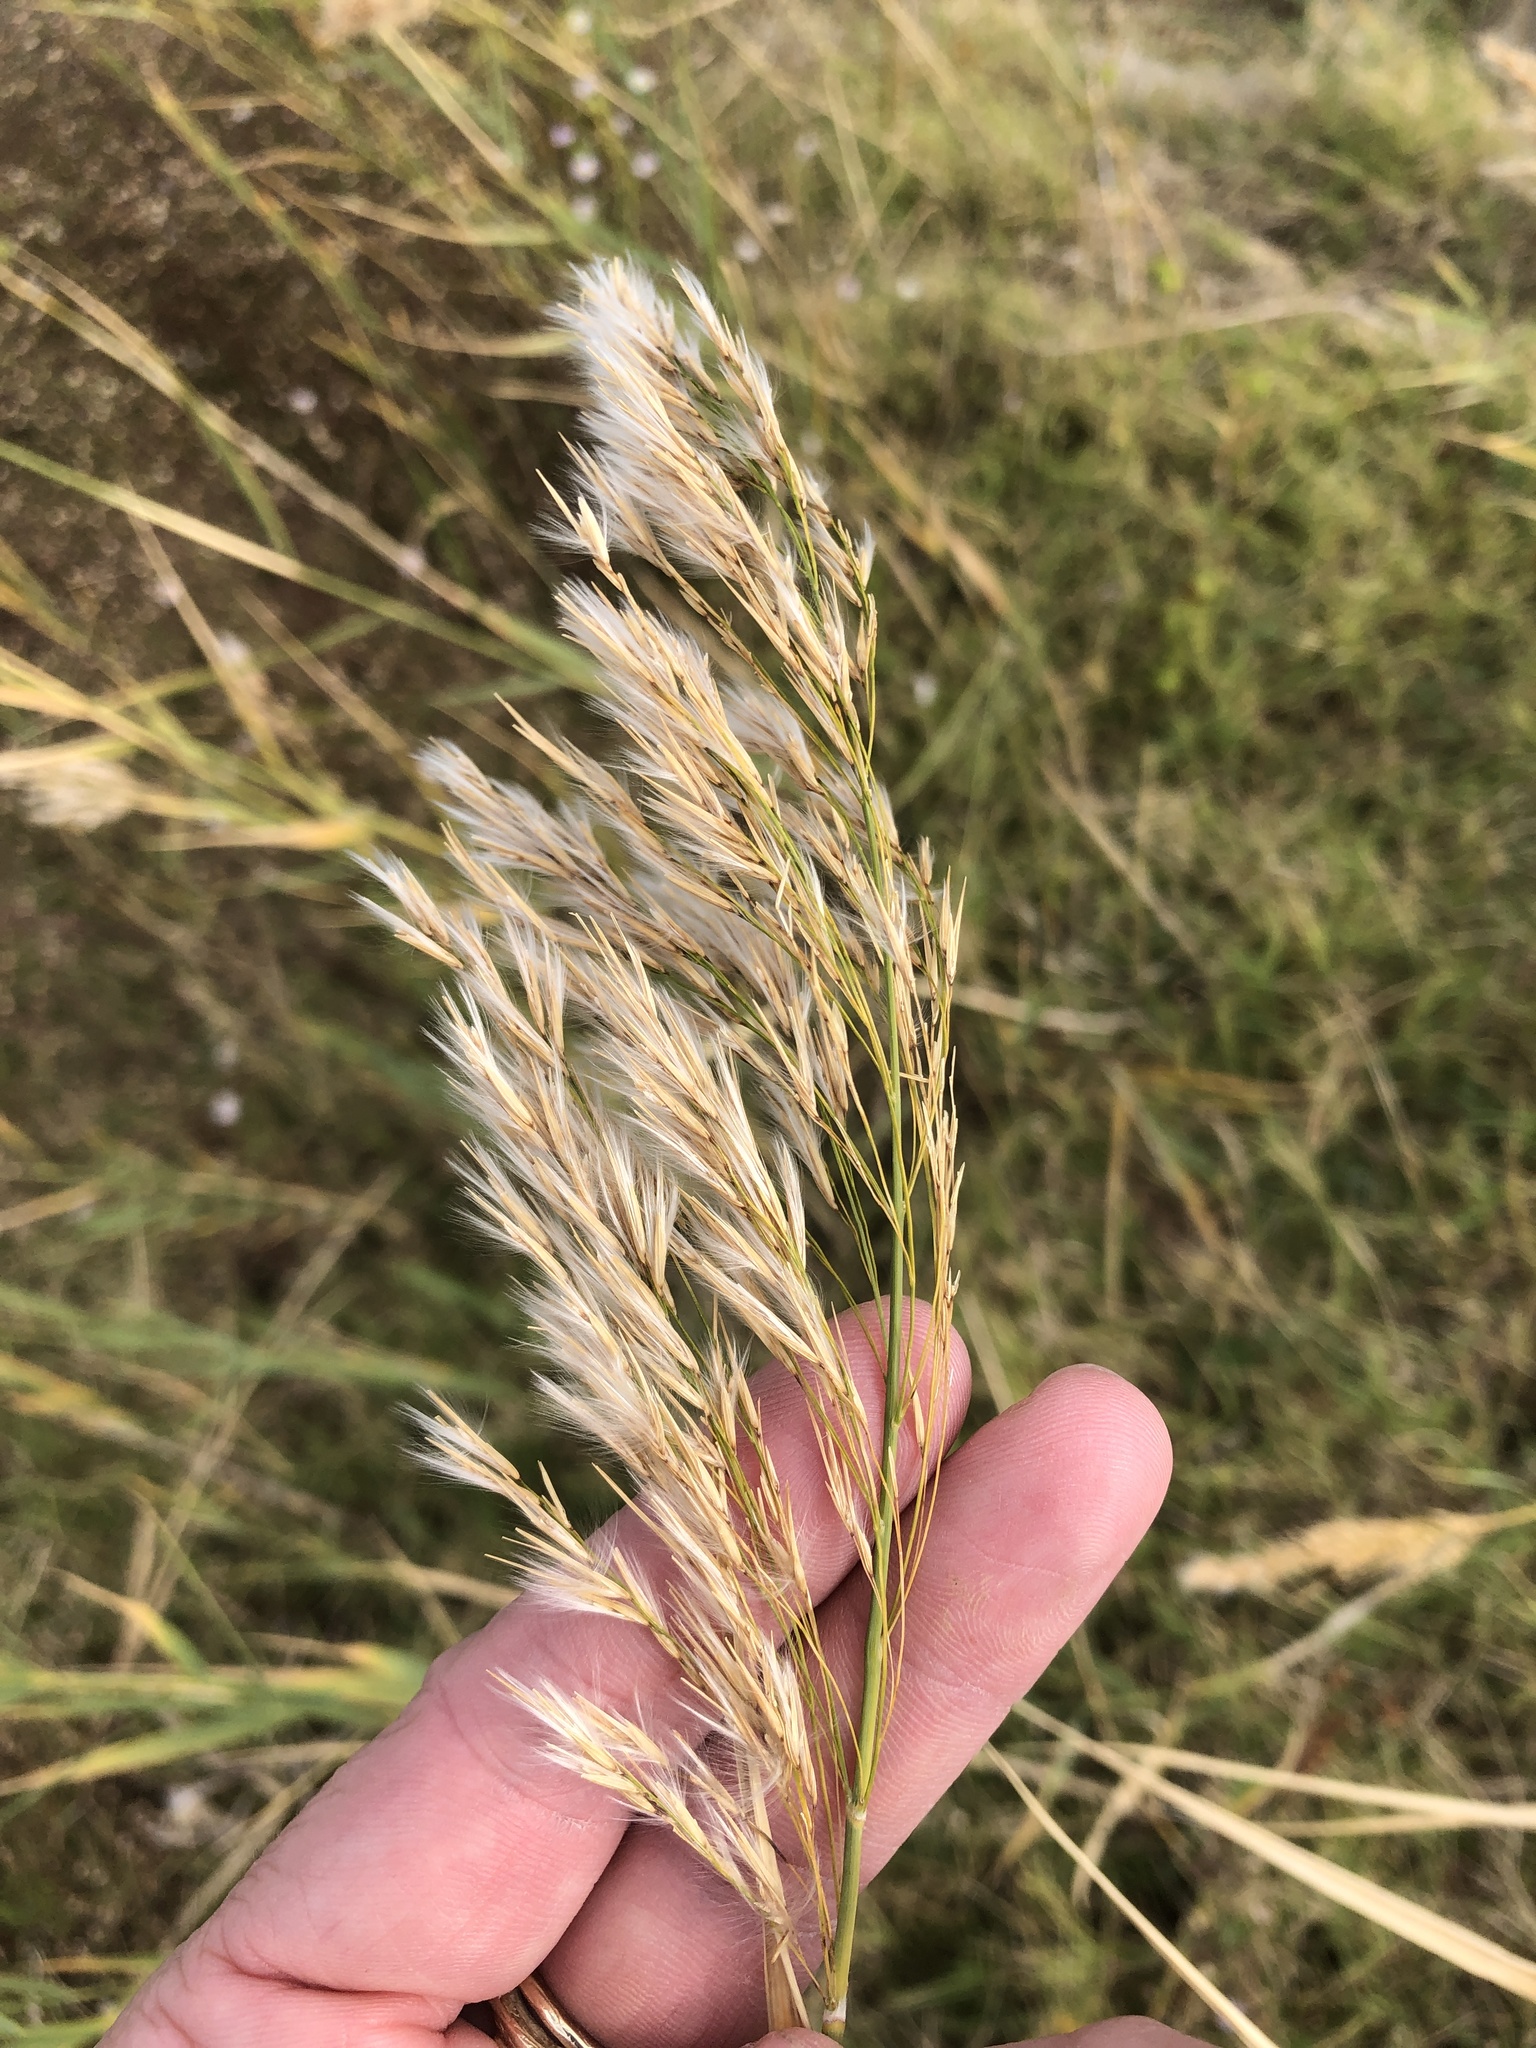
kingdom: Plantae
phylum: Tracheophyta
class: Liliopsida
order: Poales
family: Poaceae
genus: Phragmites
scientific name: Phragmites australis
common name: Common reed
